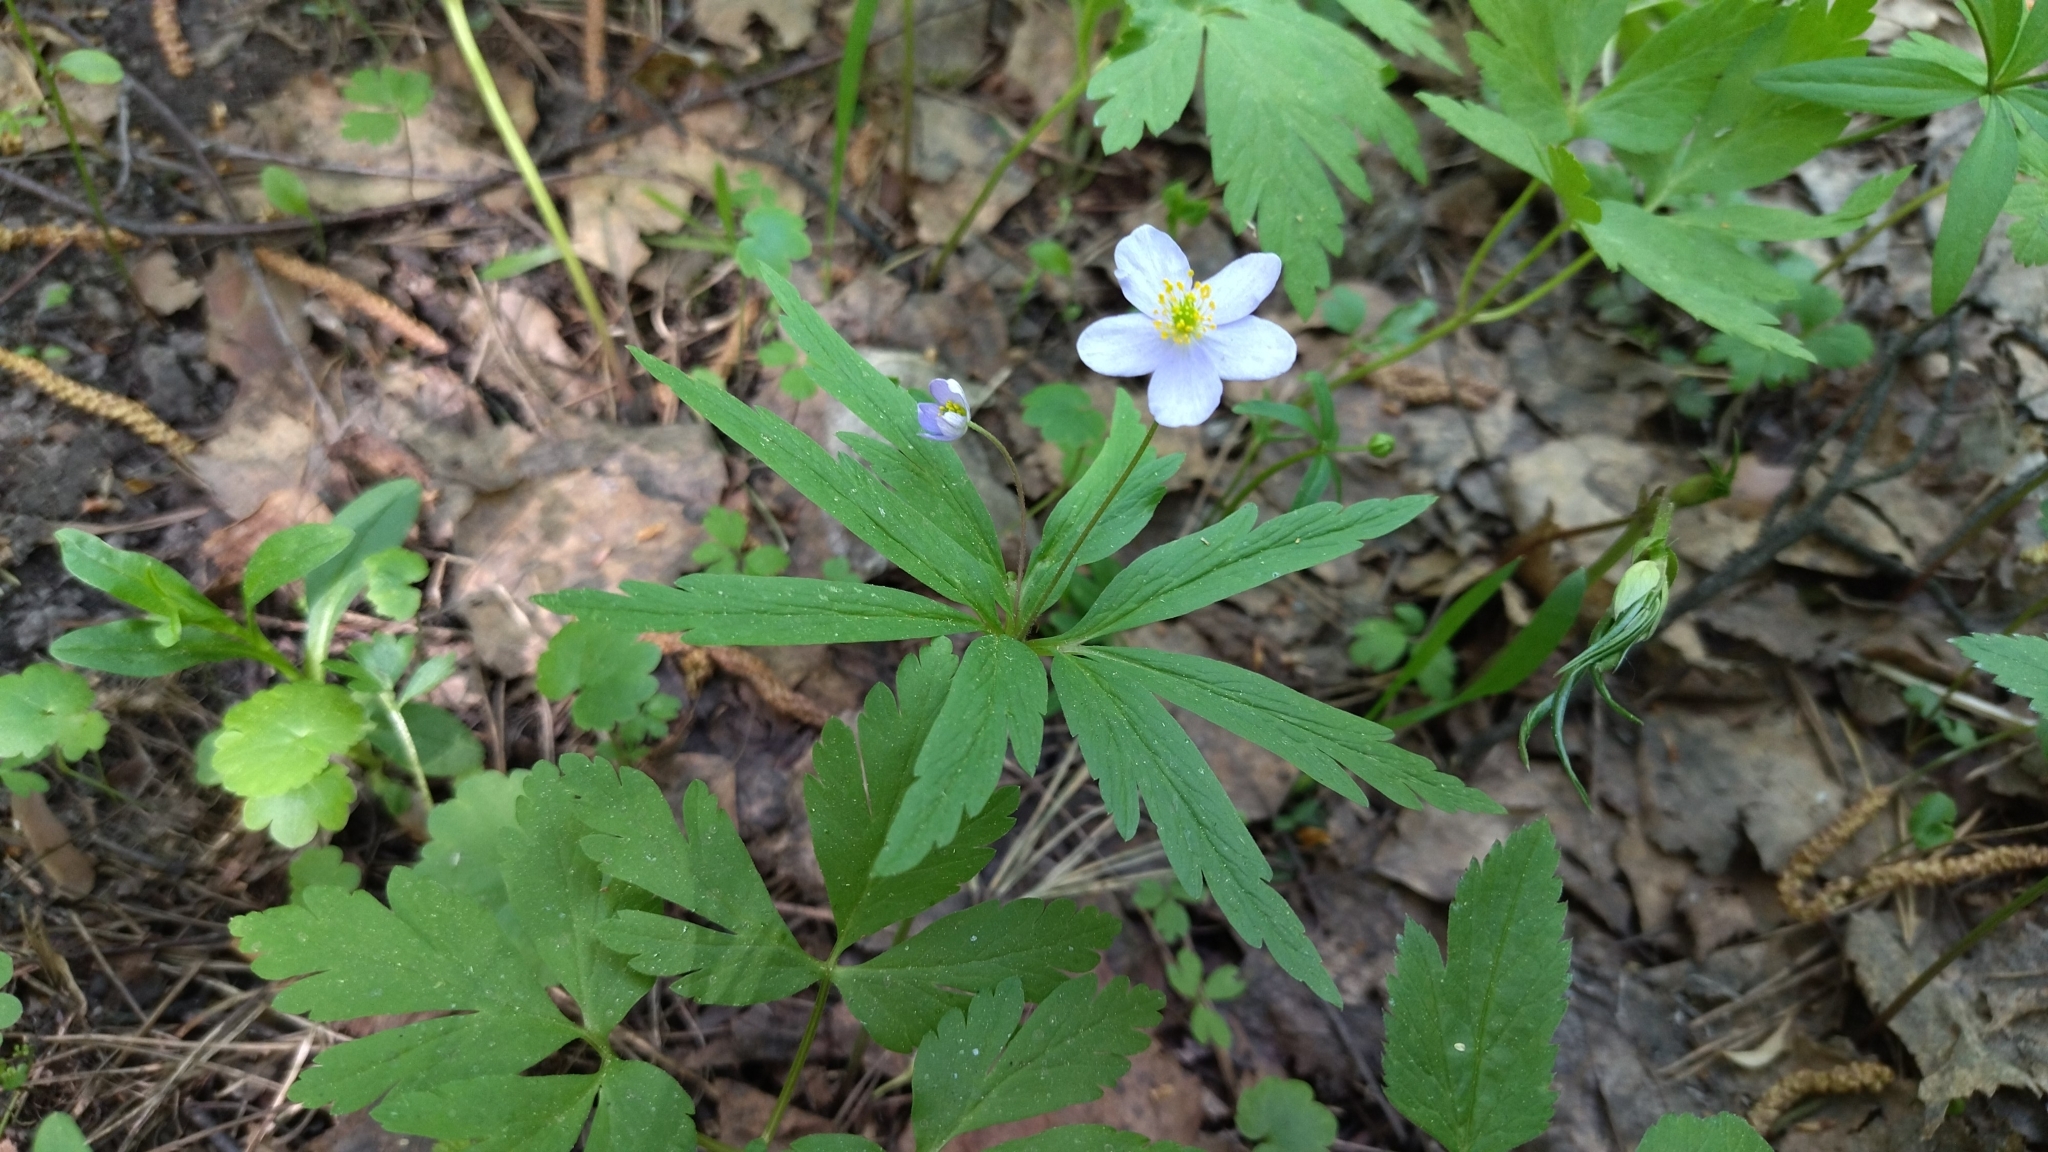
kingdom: Plantae
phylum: Tracheophyta
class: Magnoliopsida
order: Ranunculales
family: Ranunculaceae
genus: Anemone
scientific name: Anemone caerulea
